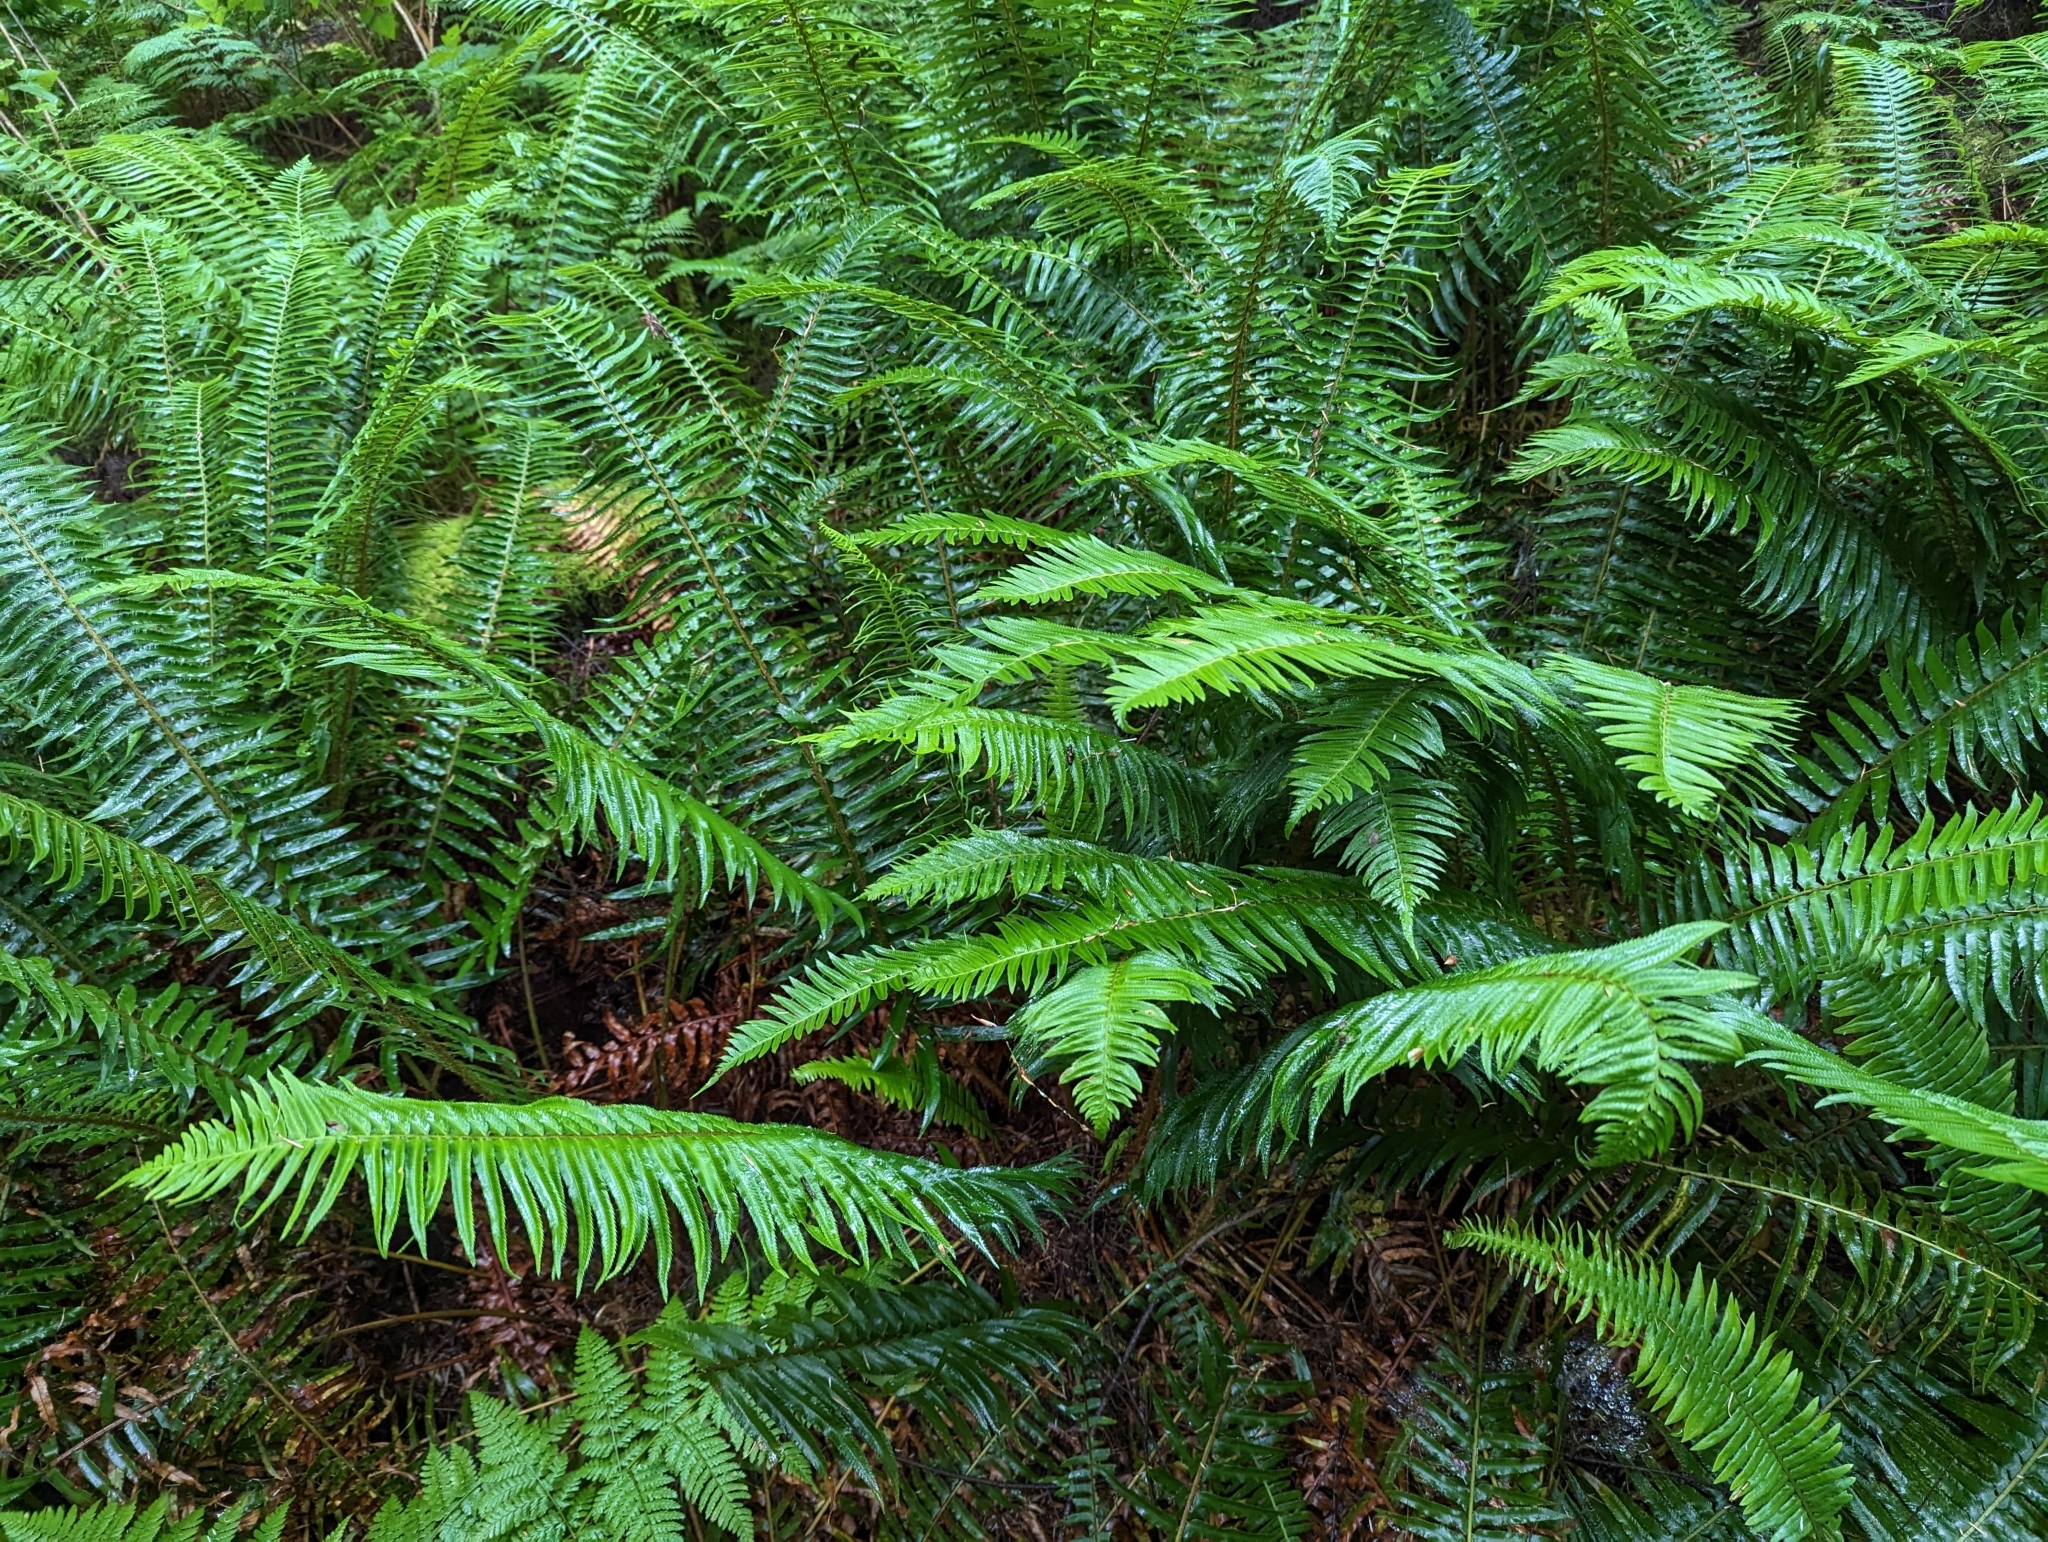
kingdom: Plantae
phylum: Tracheophyta
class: Polypodiopsida
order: Polypodiales
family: Dryopteridaceae
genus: Polystichum
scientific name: Polystichum munitum
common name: Western sword-fern
